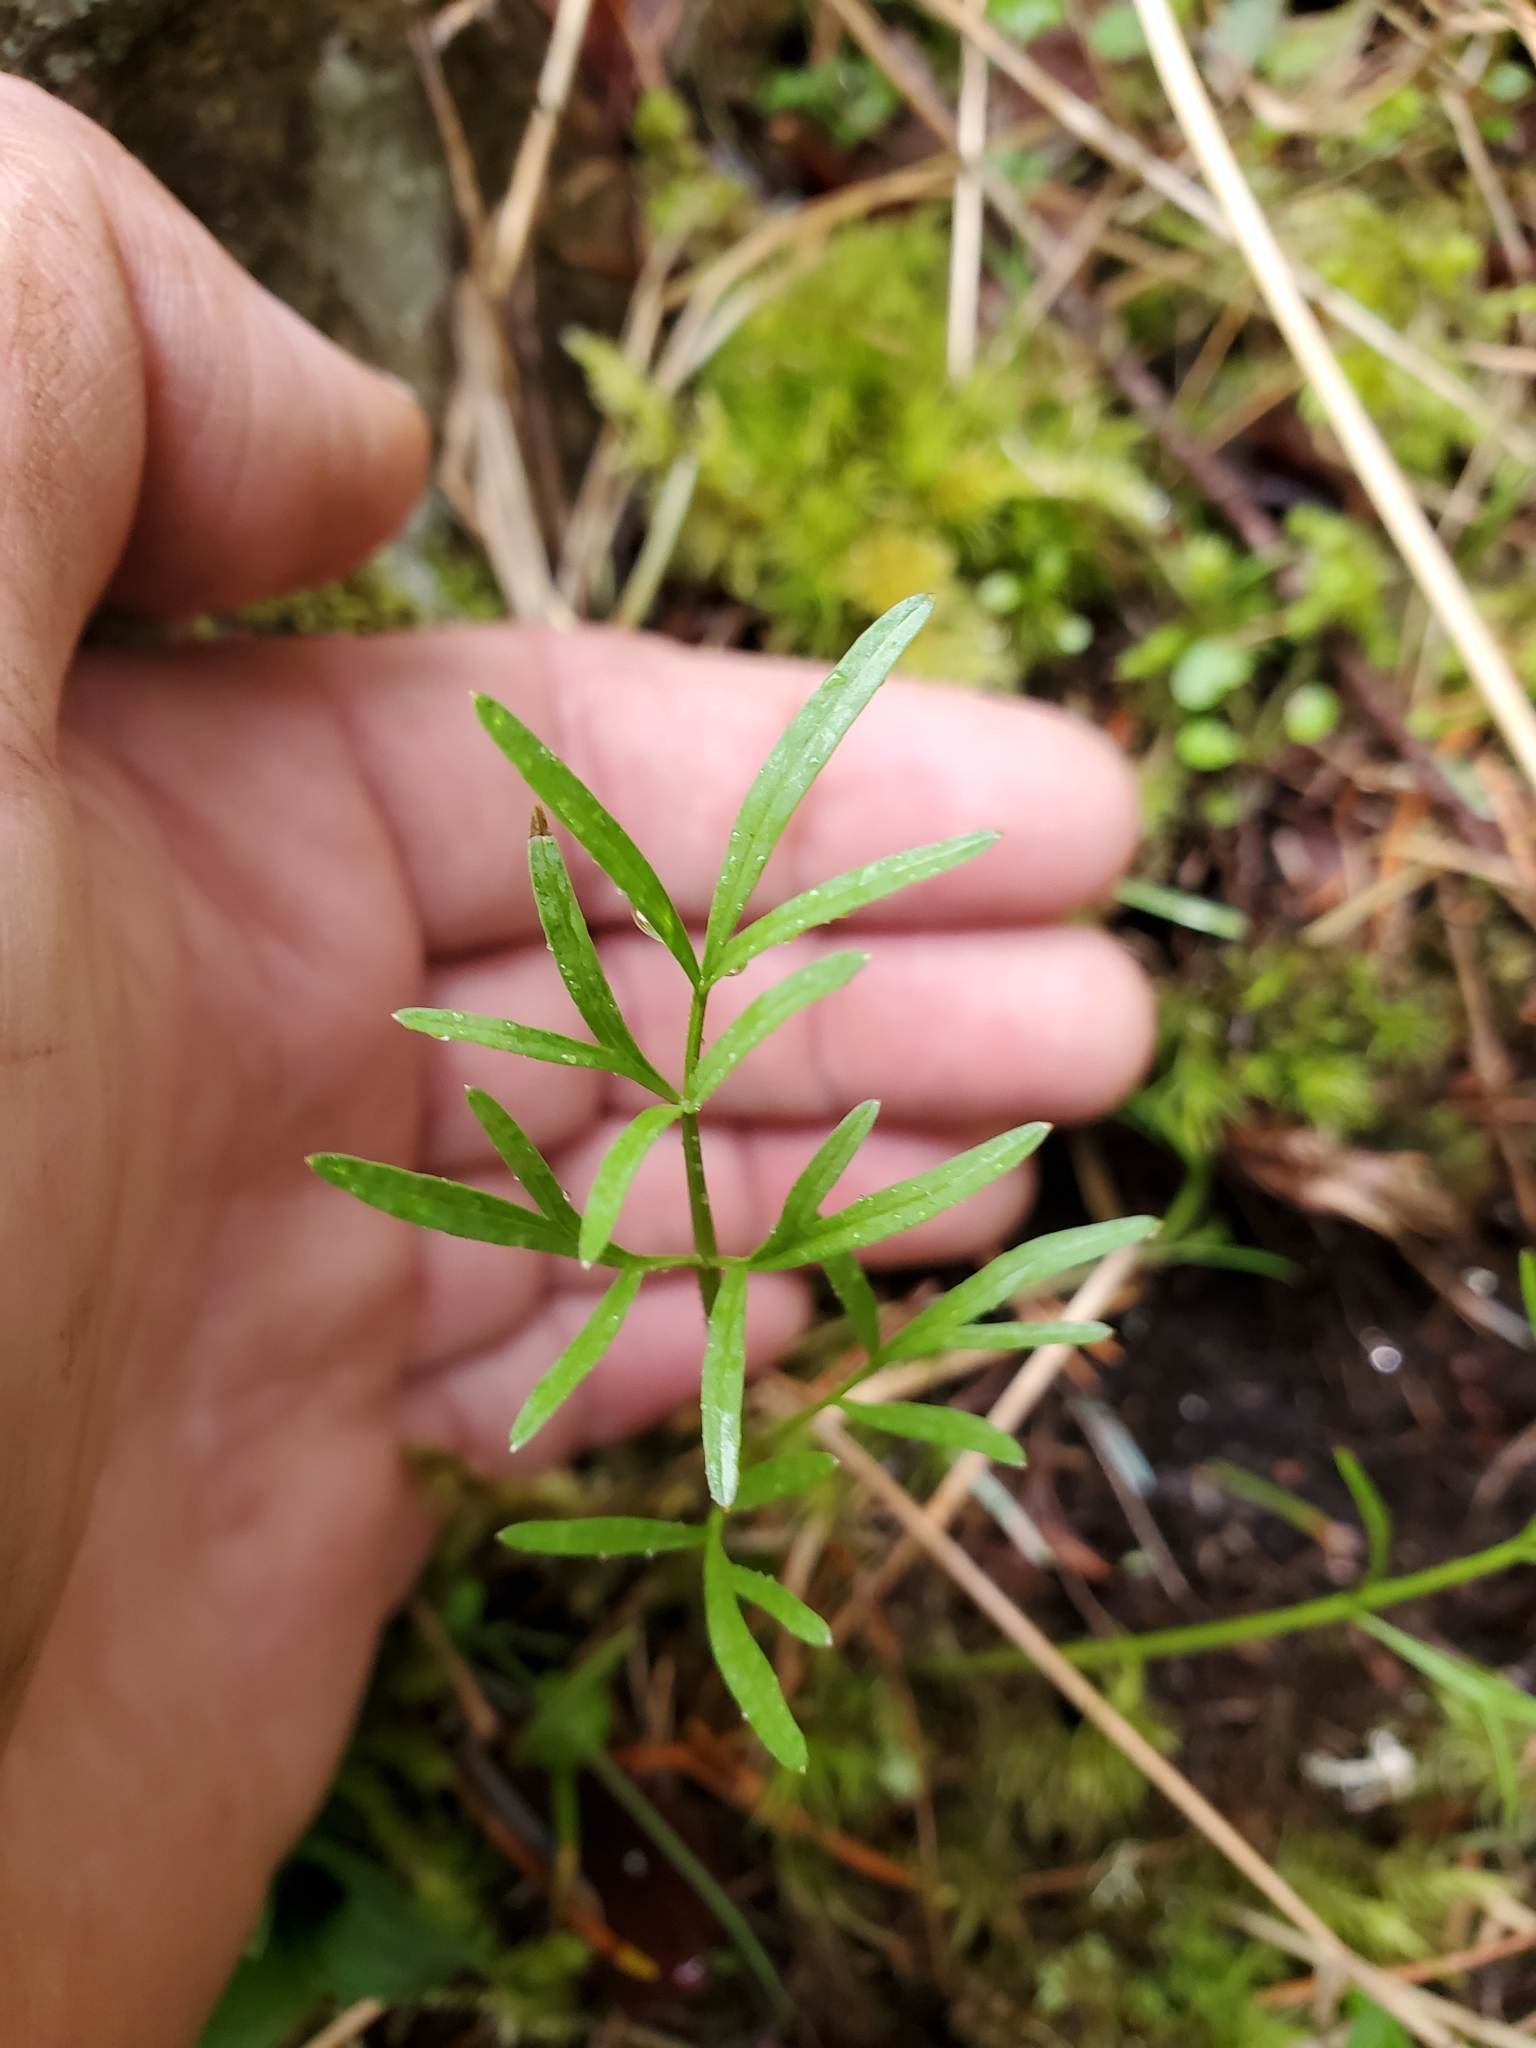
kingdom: Plantae
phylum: Tracheophyta
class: Magnoliopsida
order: Apiales
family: Apiaceae
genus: Perideridia
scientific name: Perideridia gairdneri
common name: False caraway
